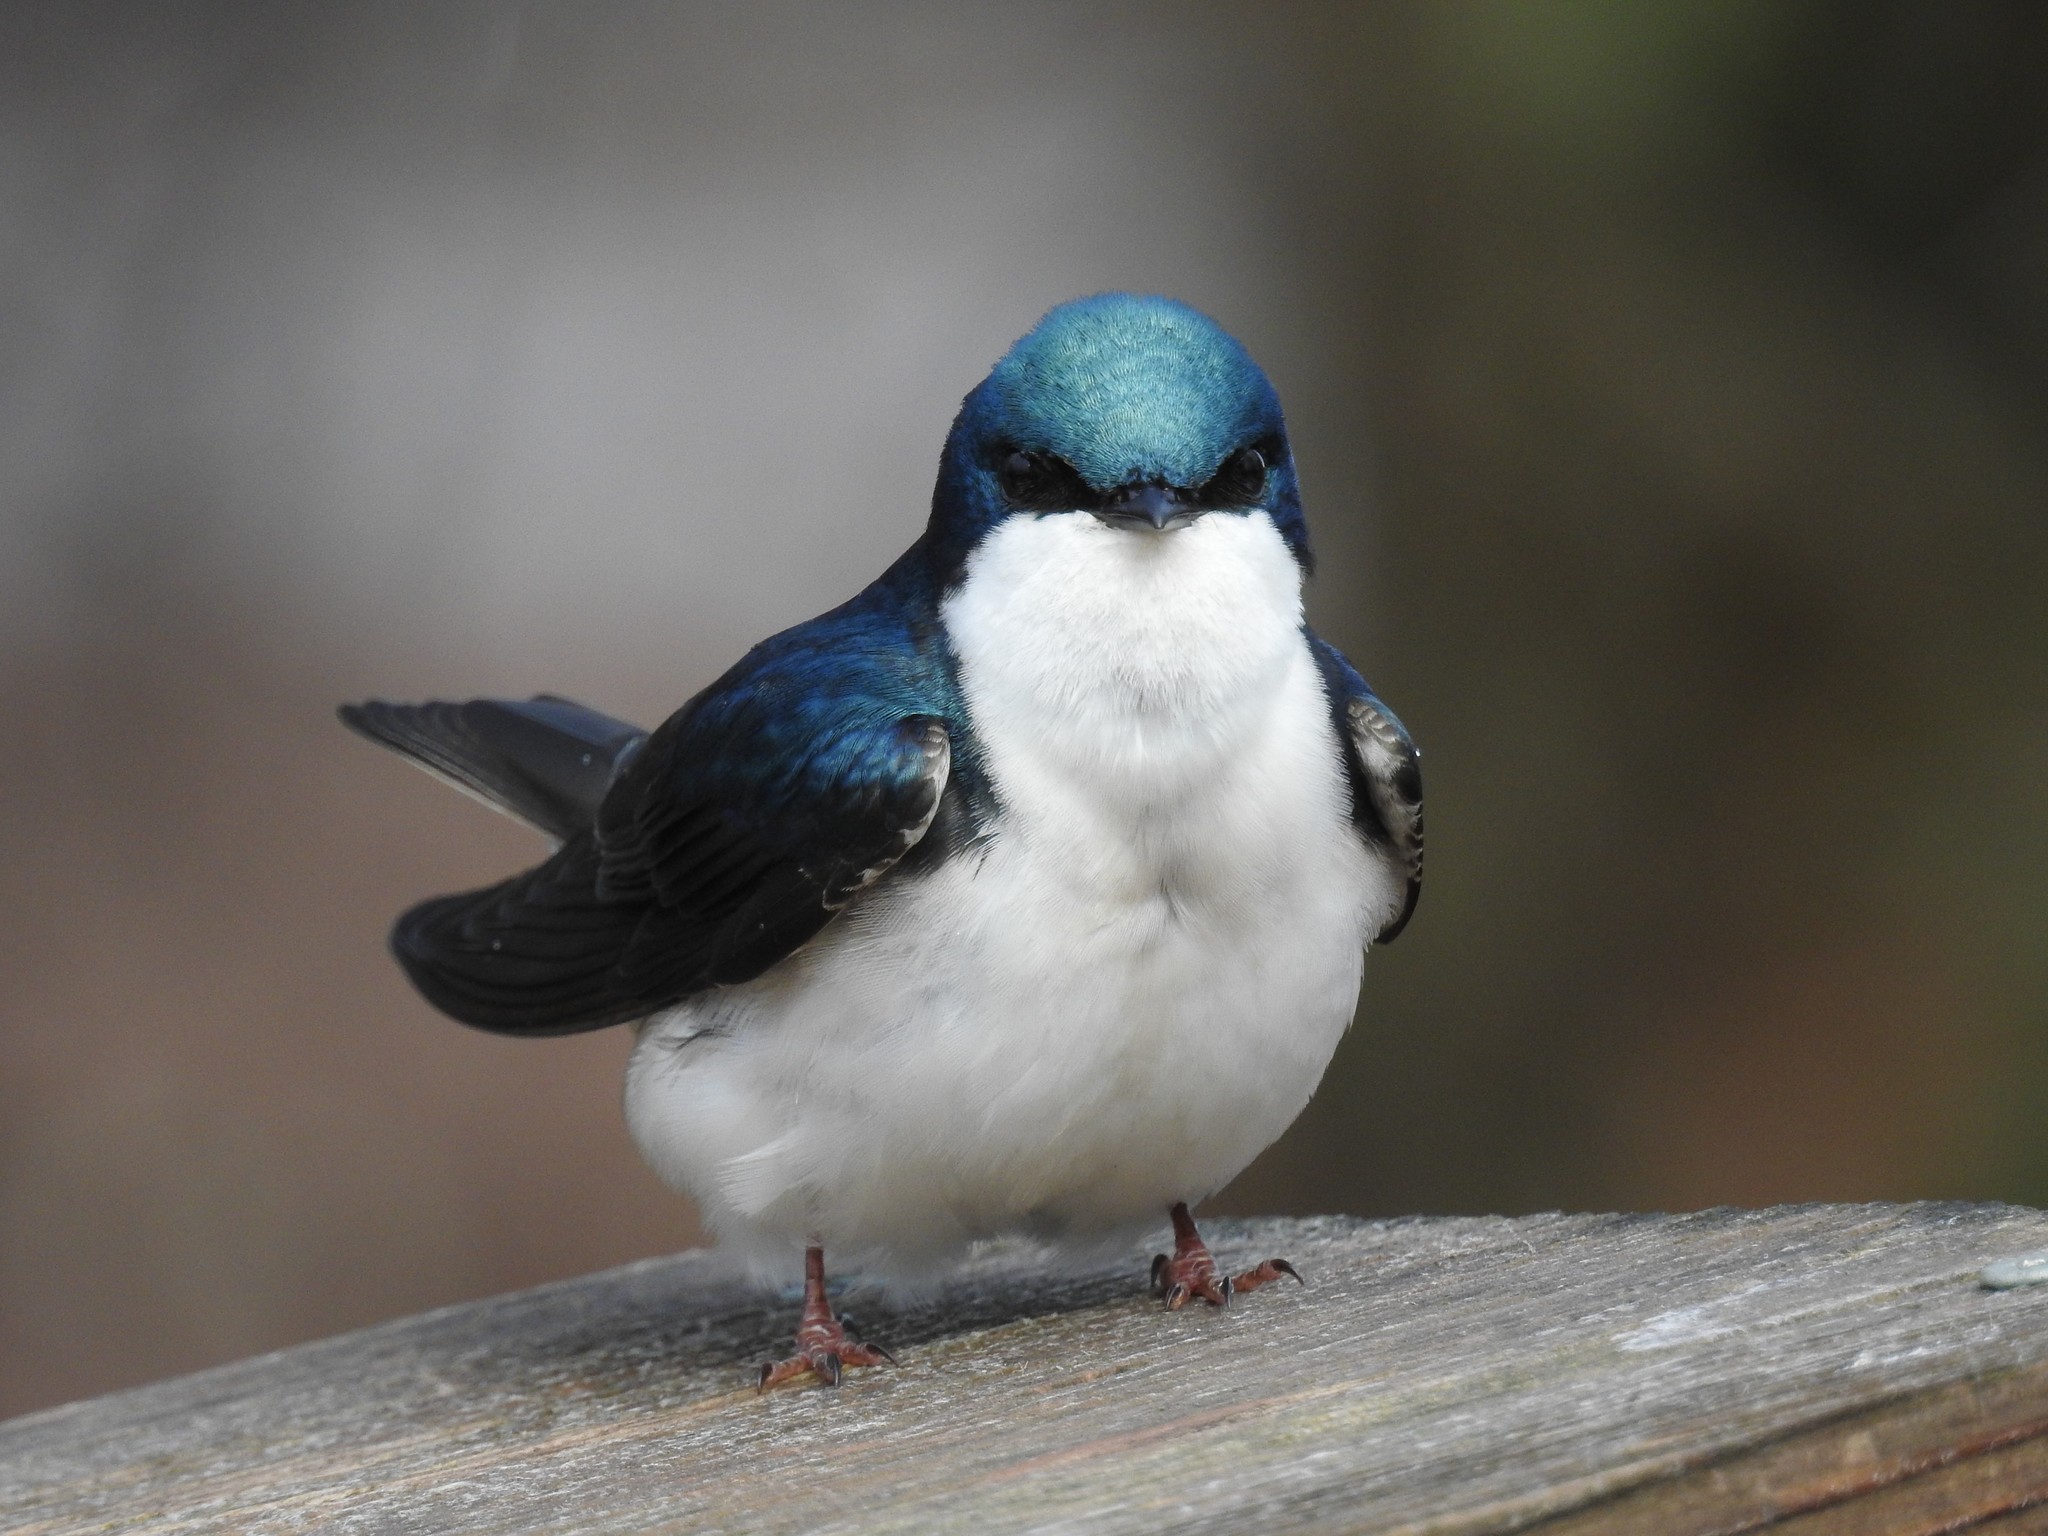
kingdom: Animalia
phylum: Chordata
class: Aves
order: Passeriformes
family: Hirundinidae
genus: Tachycineta
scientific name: Tachycineta bicolor
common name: Tree swallow
